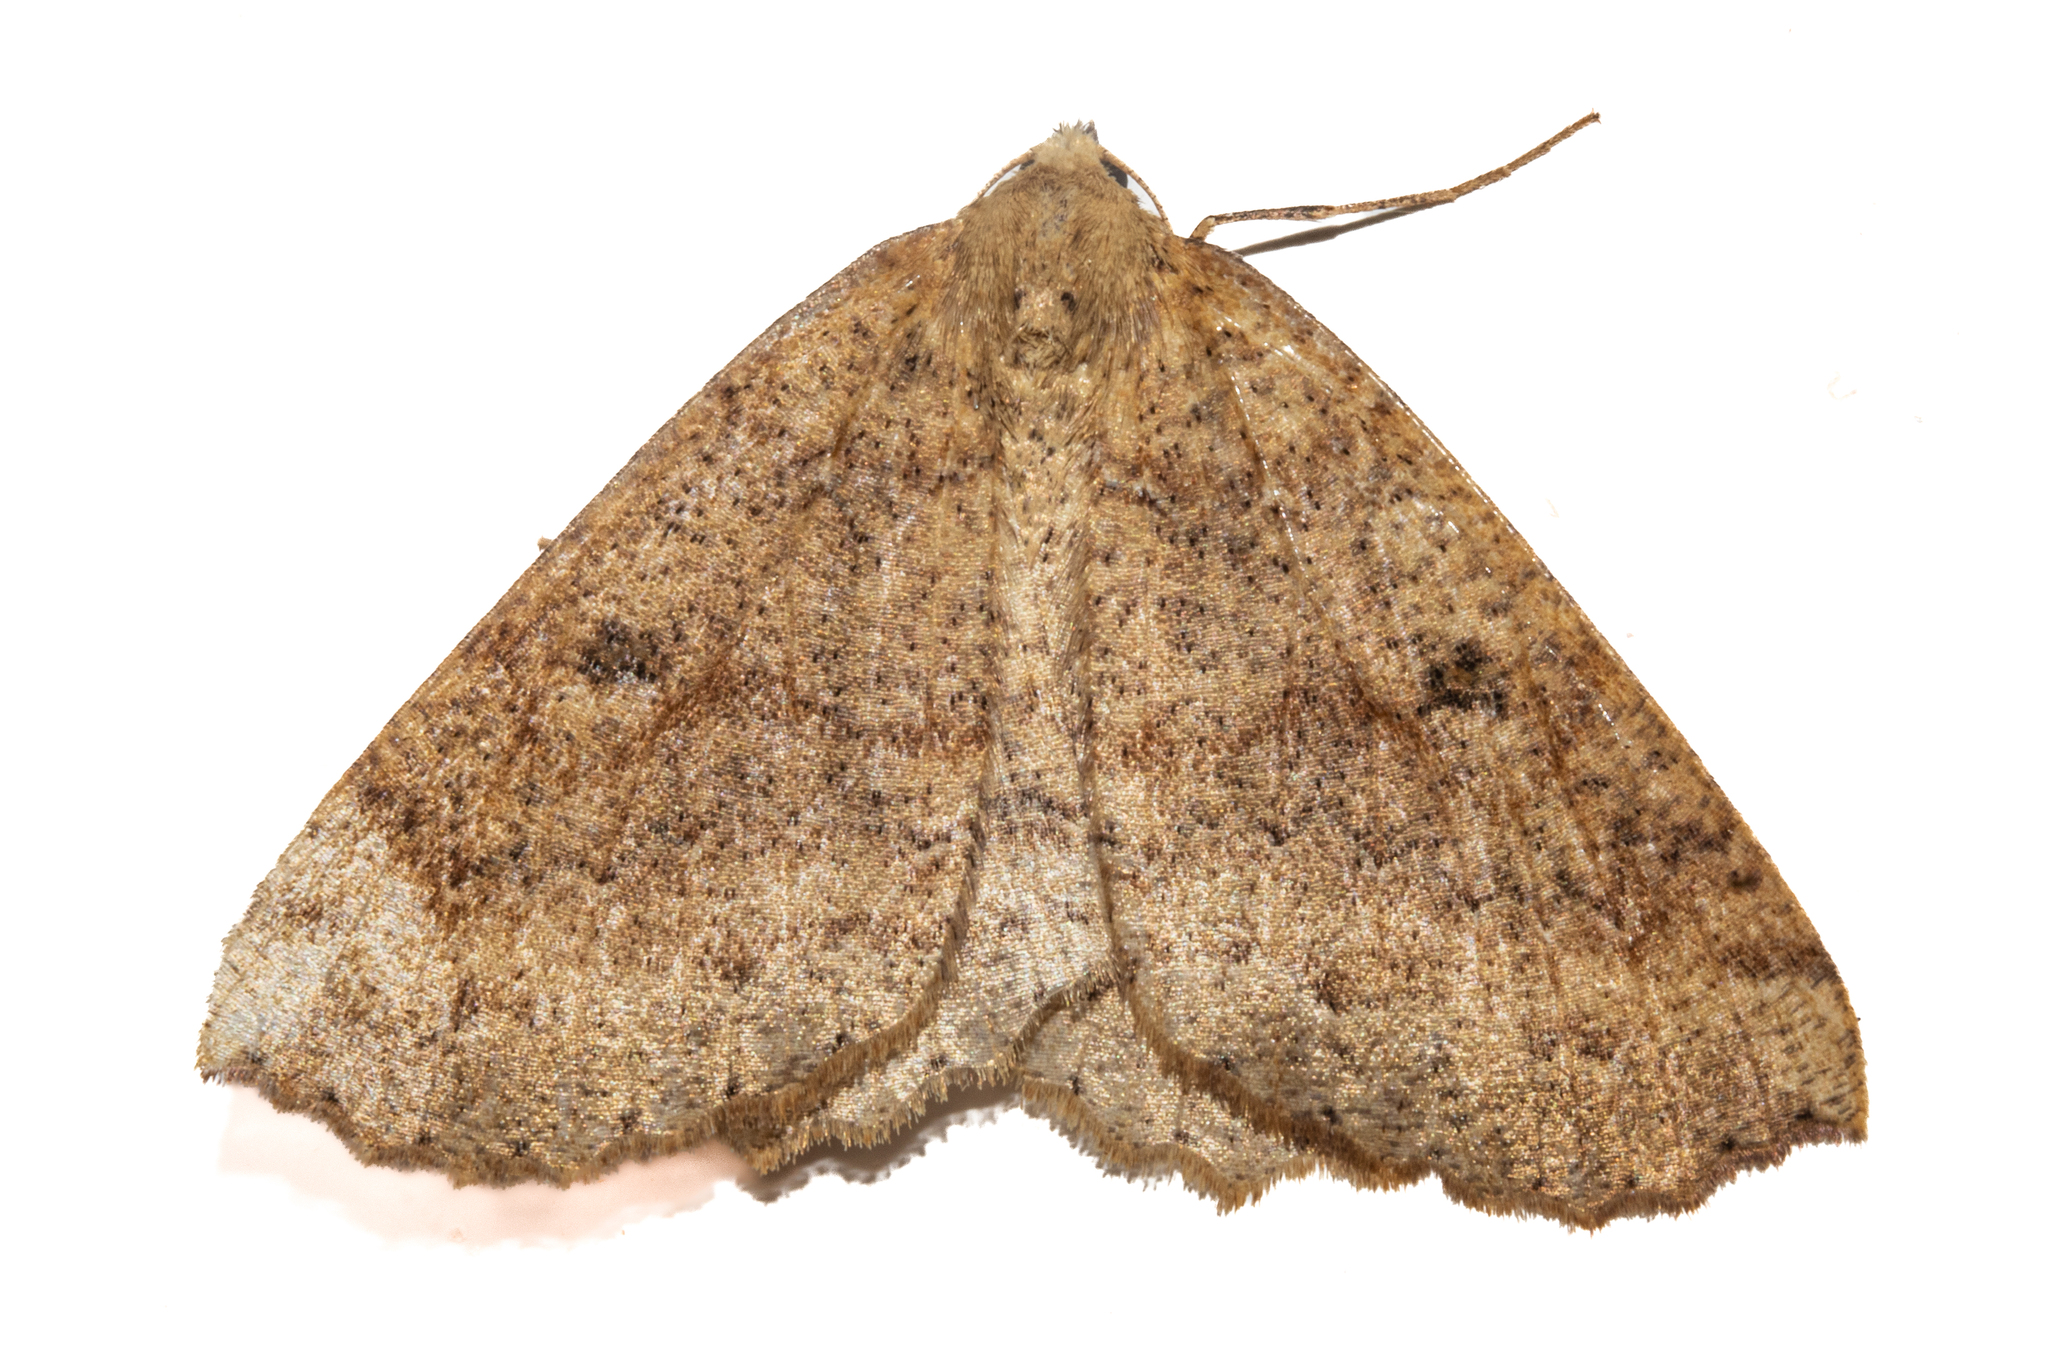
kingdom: Animalia
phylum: Arthropoda
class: Insecta
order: Lepidoptera
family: Geometridae
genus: Cleora
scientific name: Cleora scriptaria
